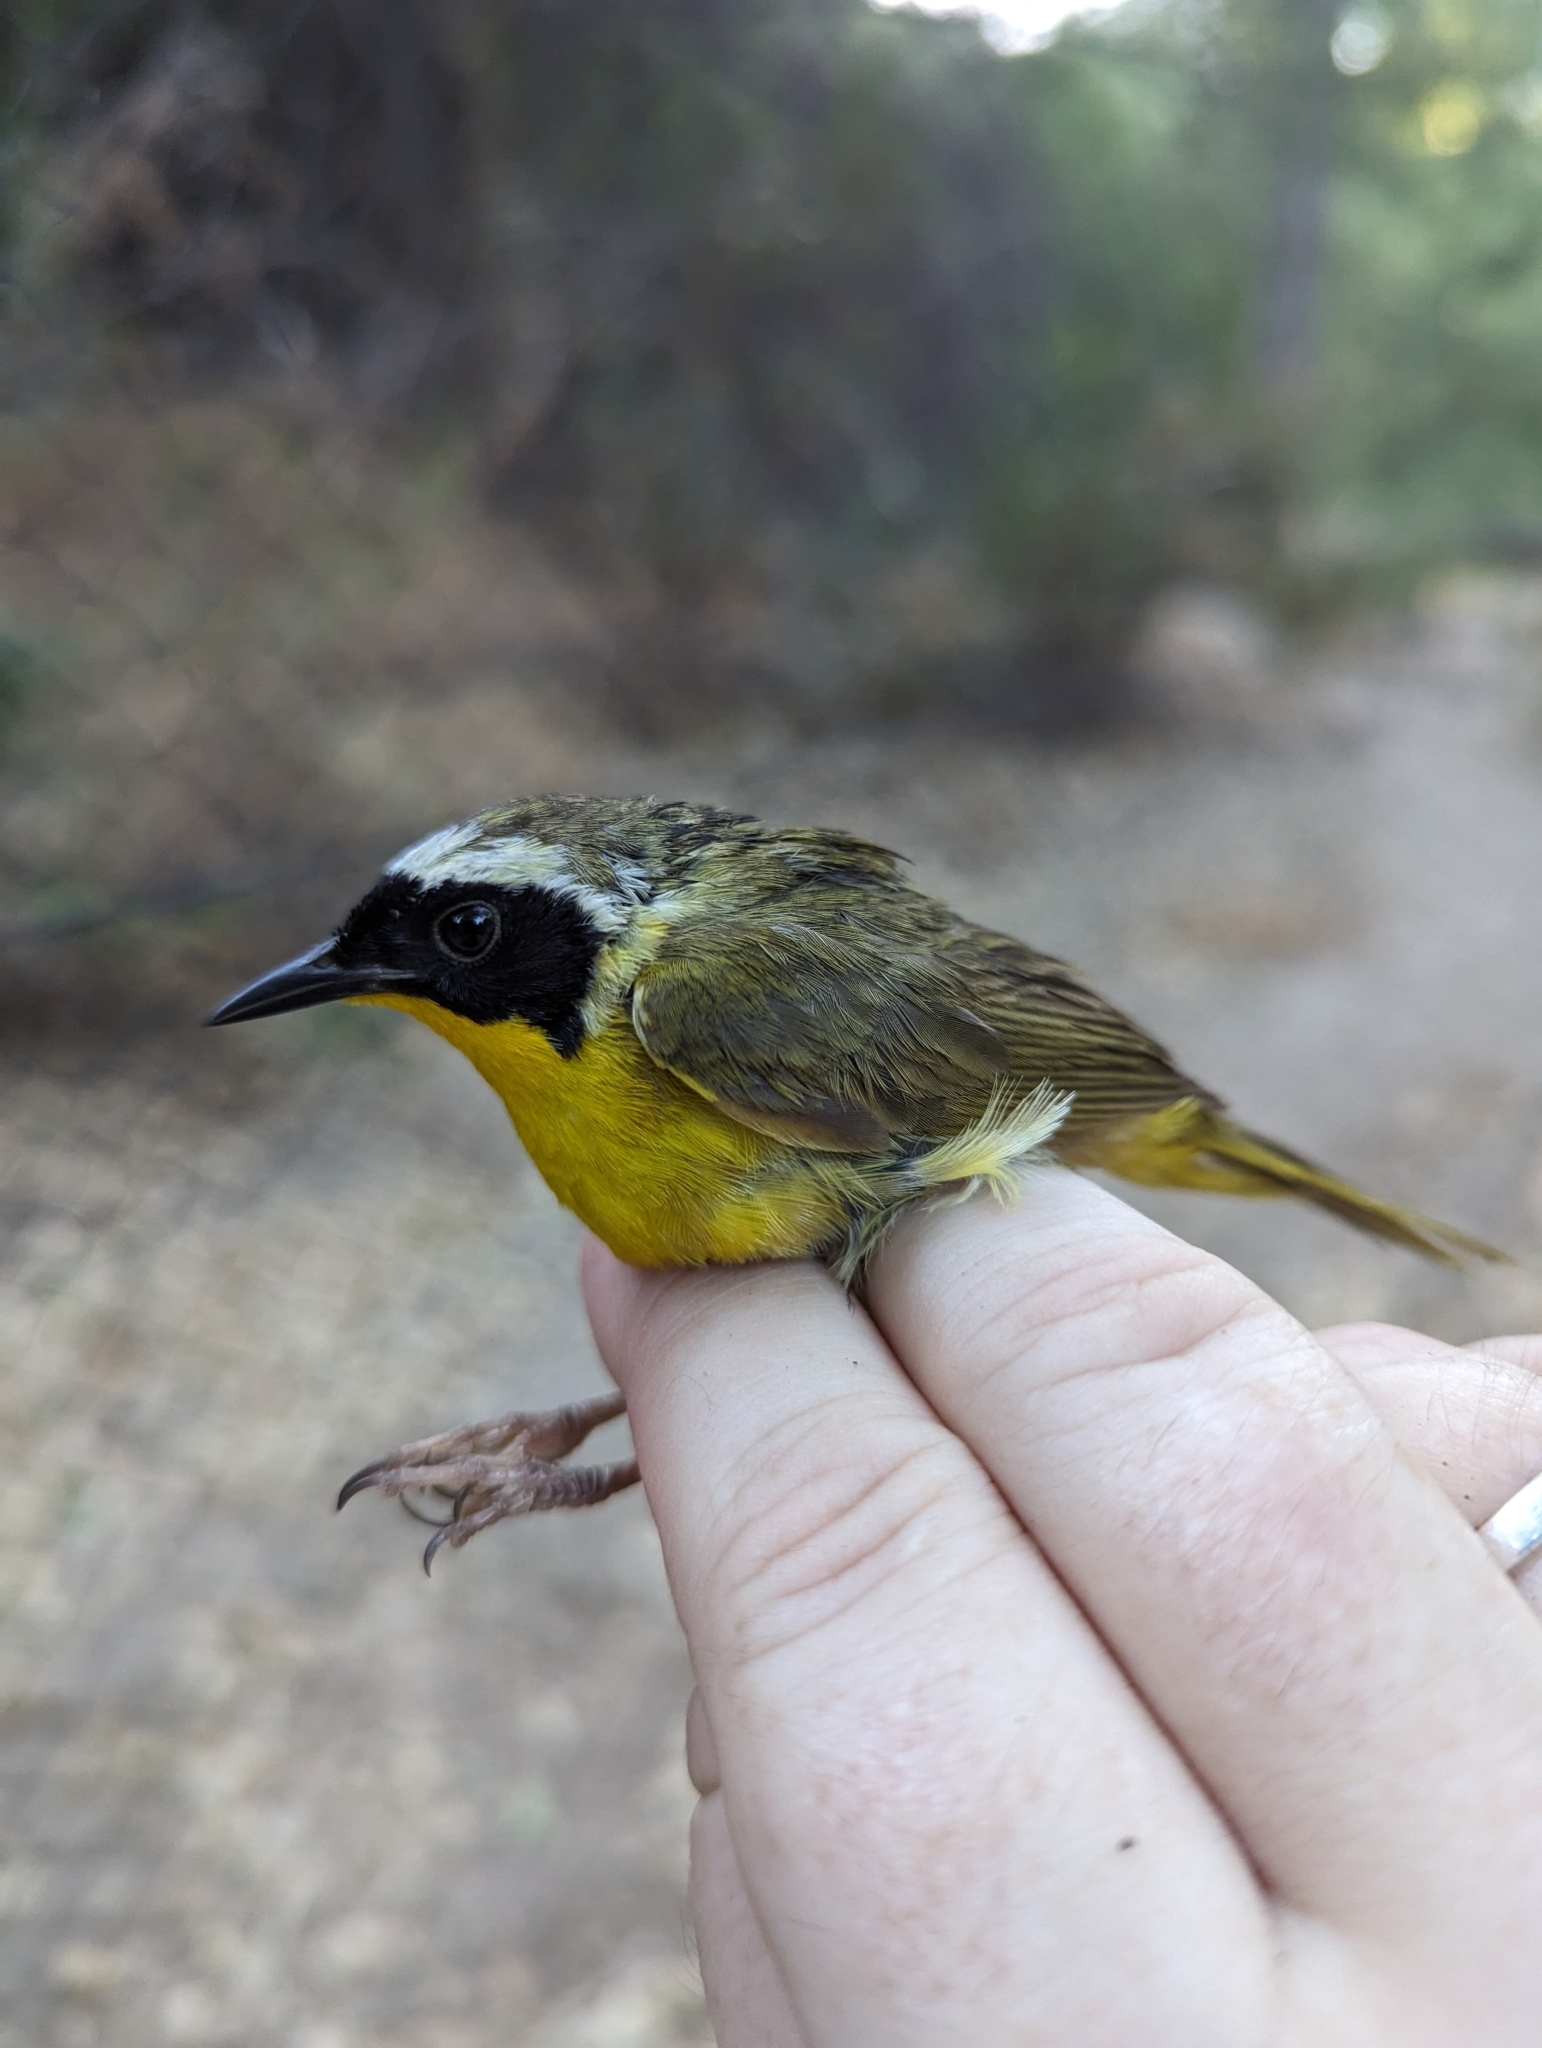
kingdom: Animalia
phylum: Chordata
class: Aves
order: Passeriformes
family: Parulidae
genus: Geothlypis
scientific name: Geothlypis trichas
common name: Common yellowthroat
